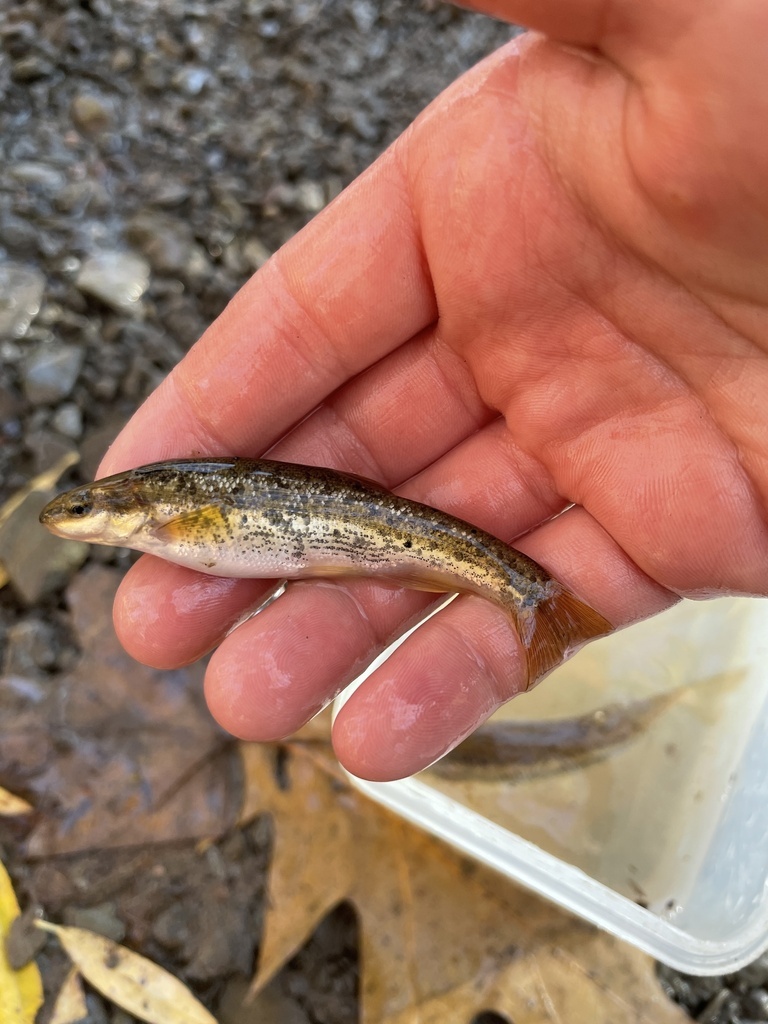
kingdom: Animalia
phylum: Chordata
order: Cypriniformes
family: Cyprinidae
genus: Rhinichthys
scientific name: Rhinichthys obtusus
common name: Western blacknose dace
